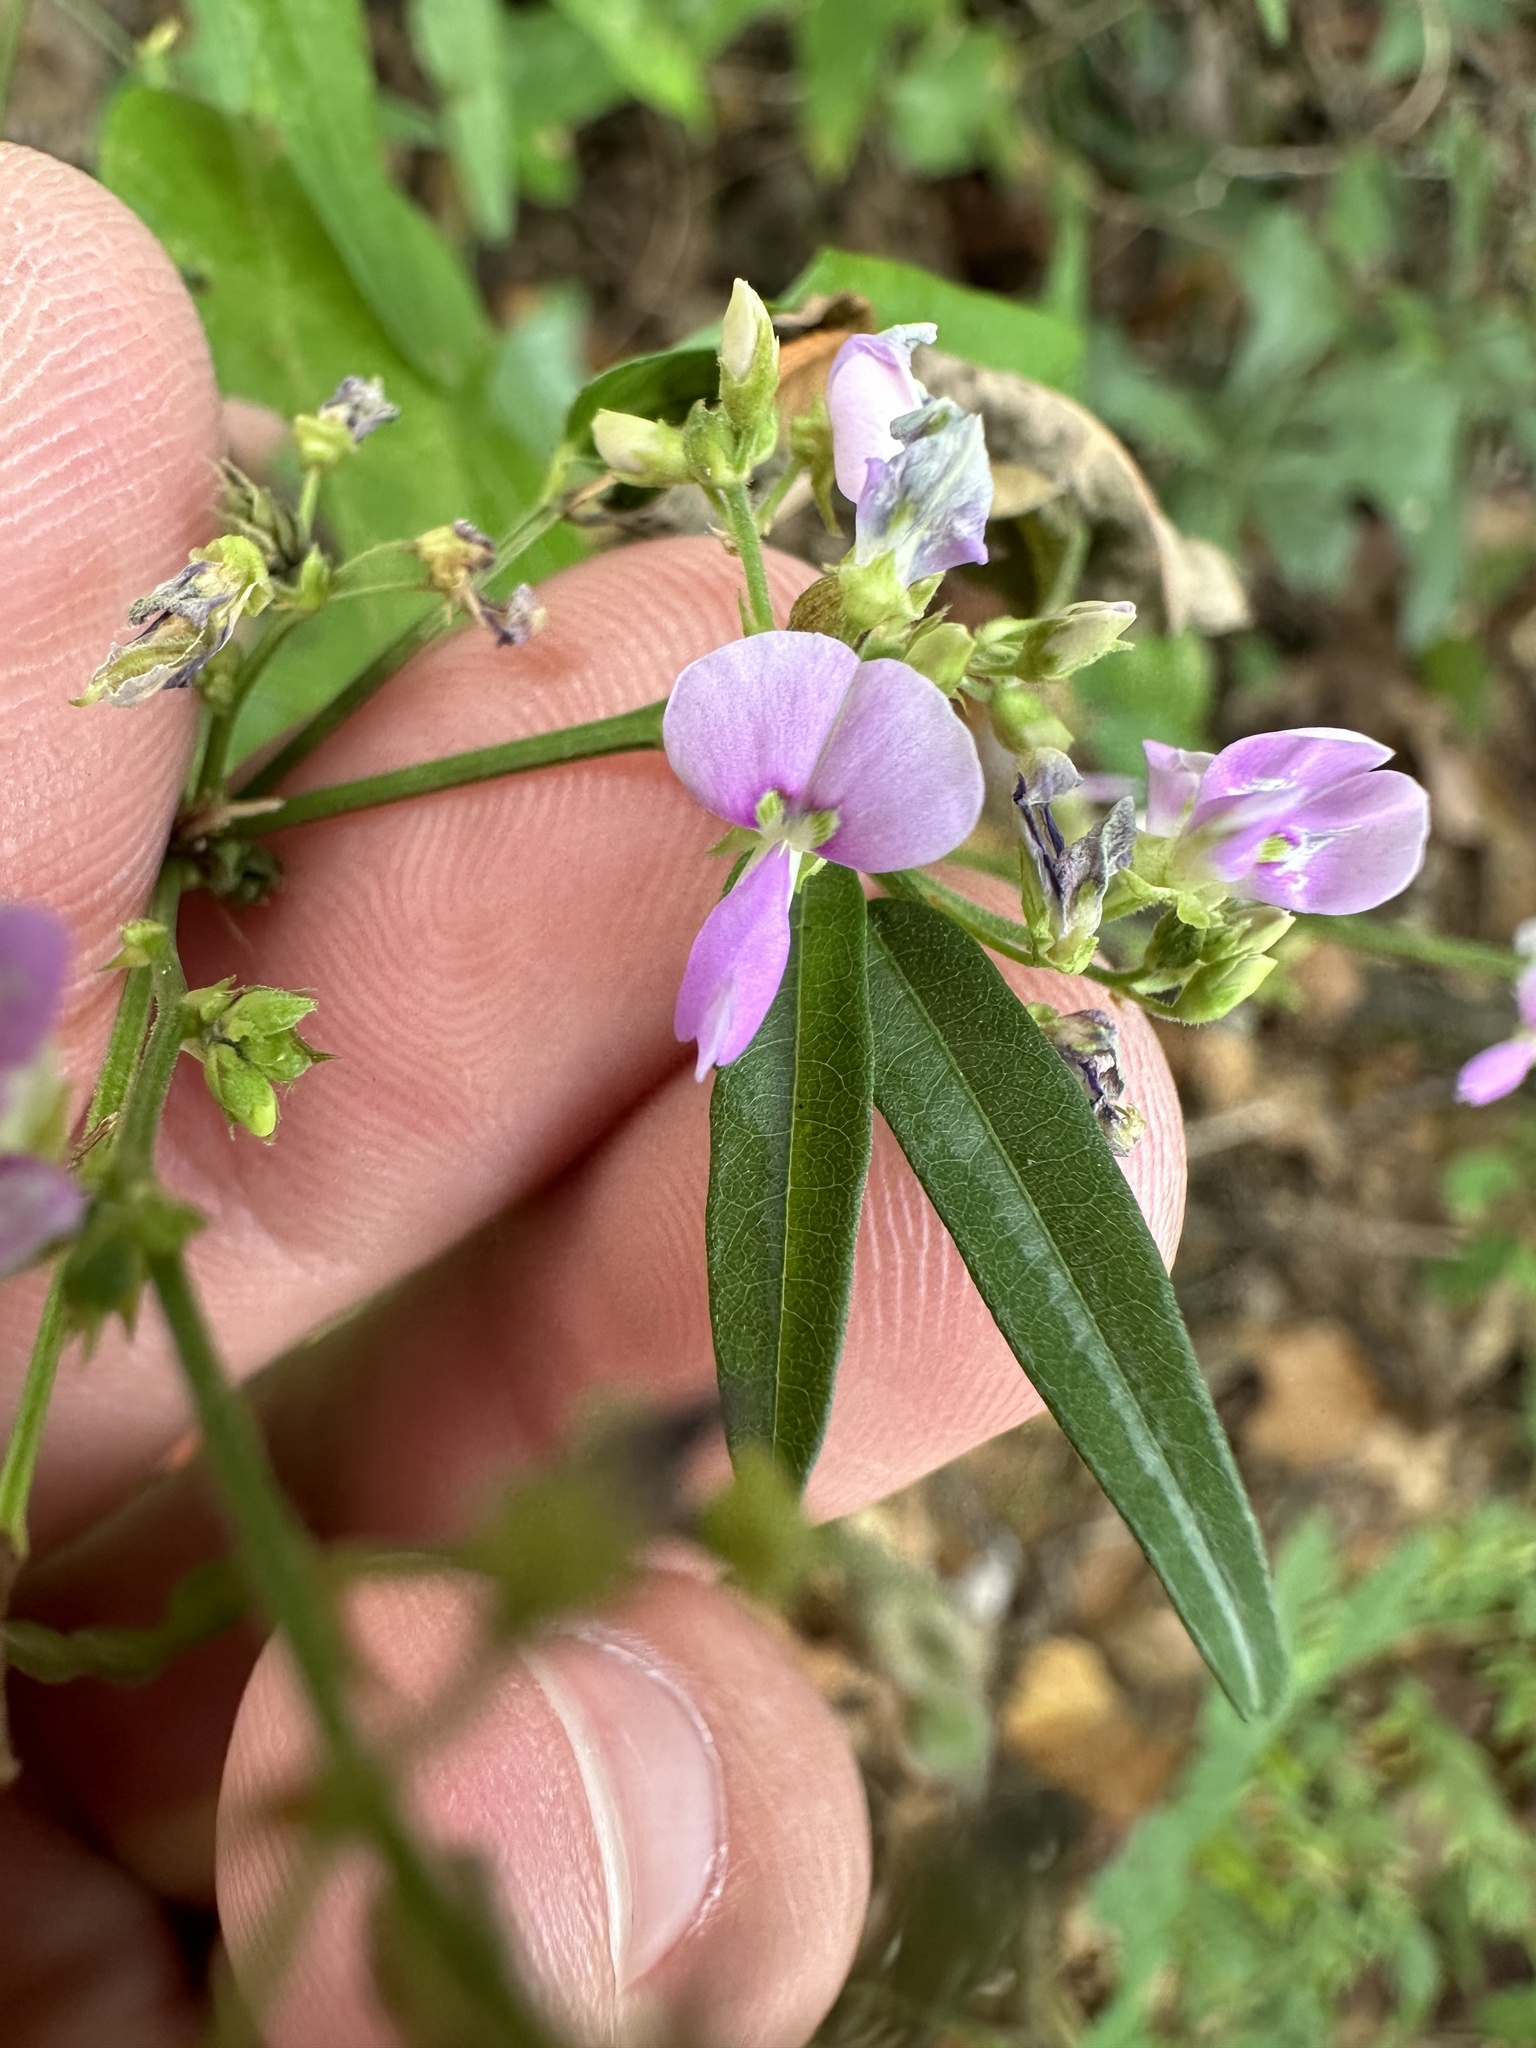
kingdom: Plantae
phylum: Tracheophyta
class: Magnoliopsida
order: Fabales
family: Fabaceae
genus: Desmodium
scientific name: Desmodium paniculatum
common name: Panicled tick-clover
